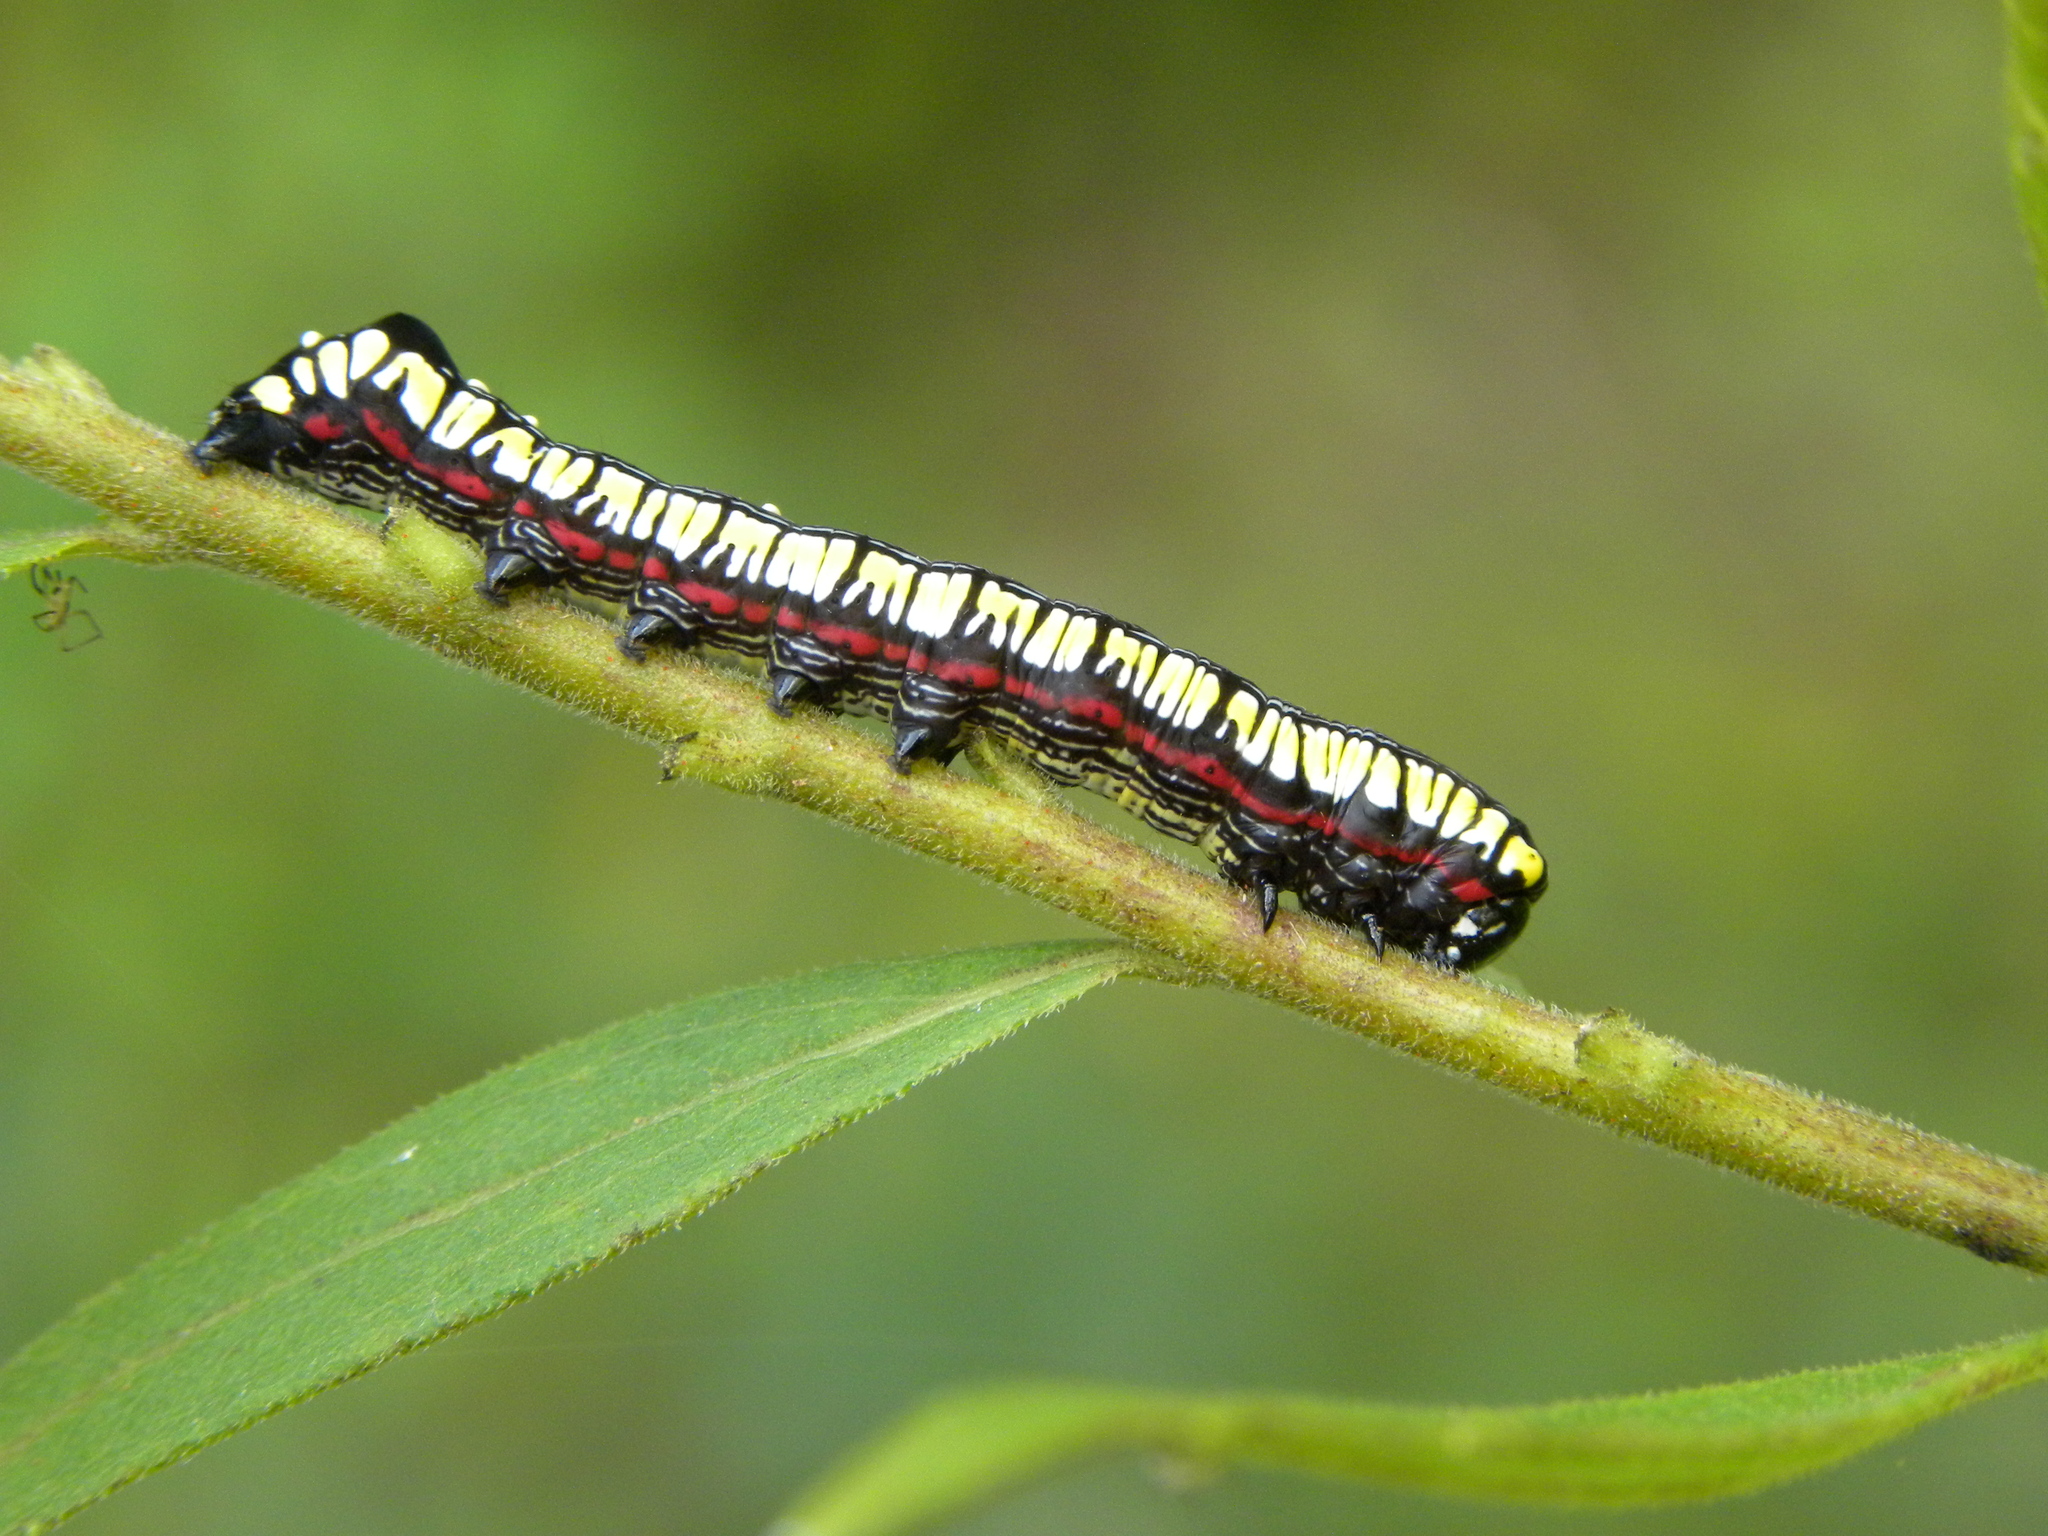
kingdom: Animalia
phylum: Arthropoda
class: Insecta
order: Lepidoptera
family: Noctuidae
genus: Cucullia
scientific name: Cucullia convexipennis
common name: Brown-hooded owlet
